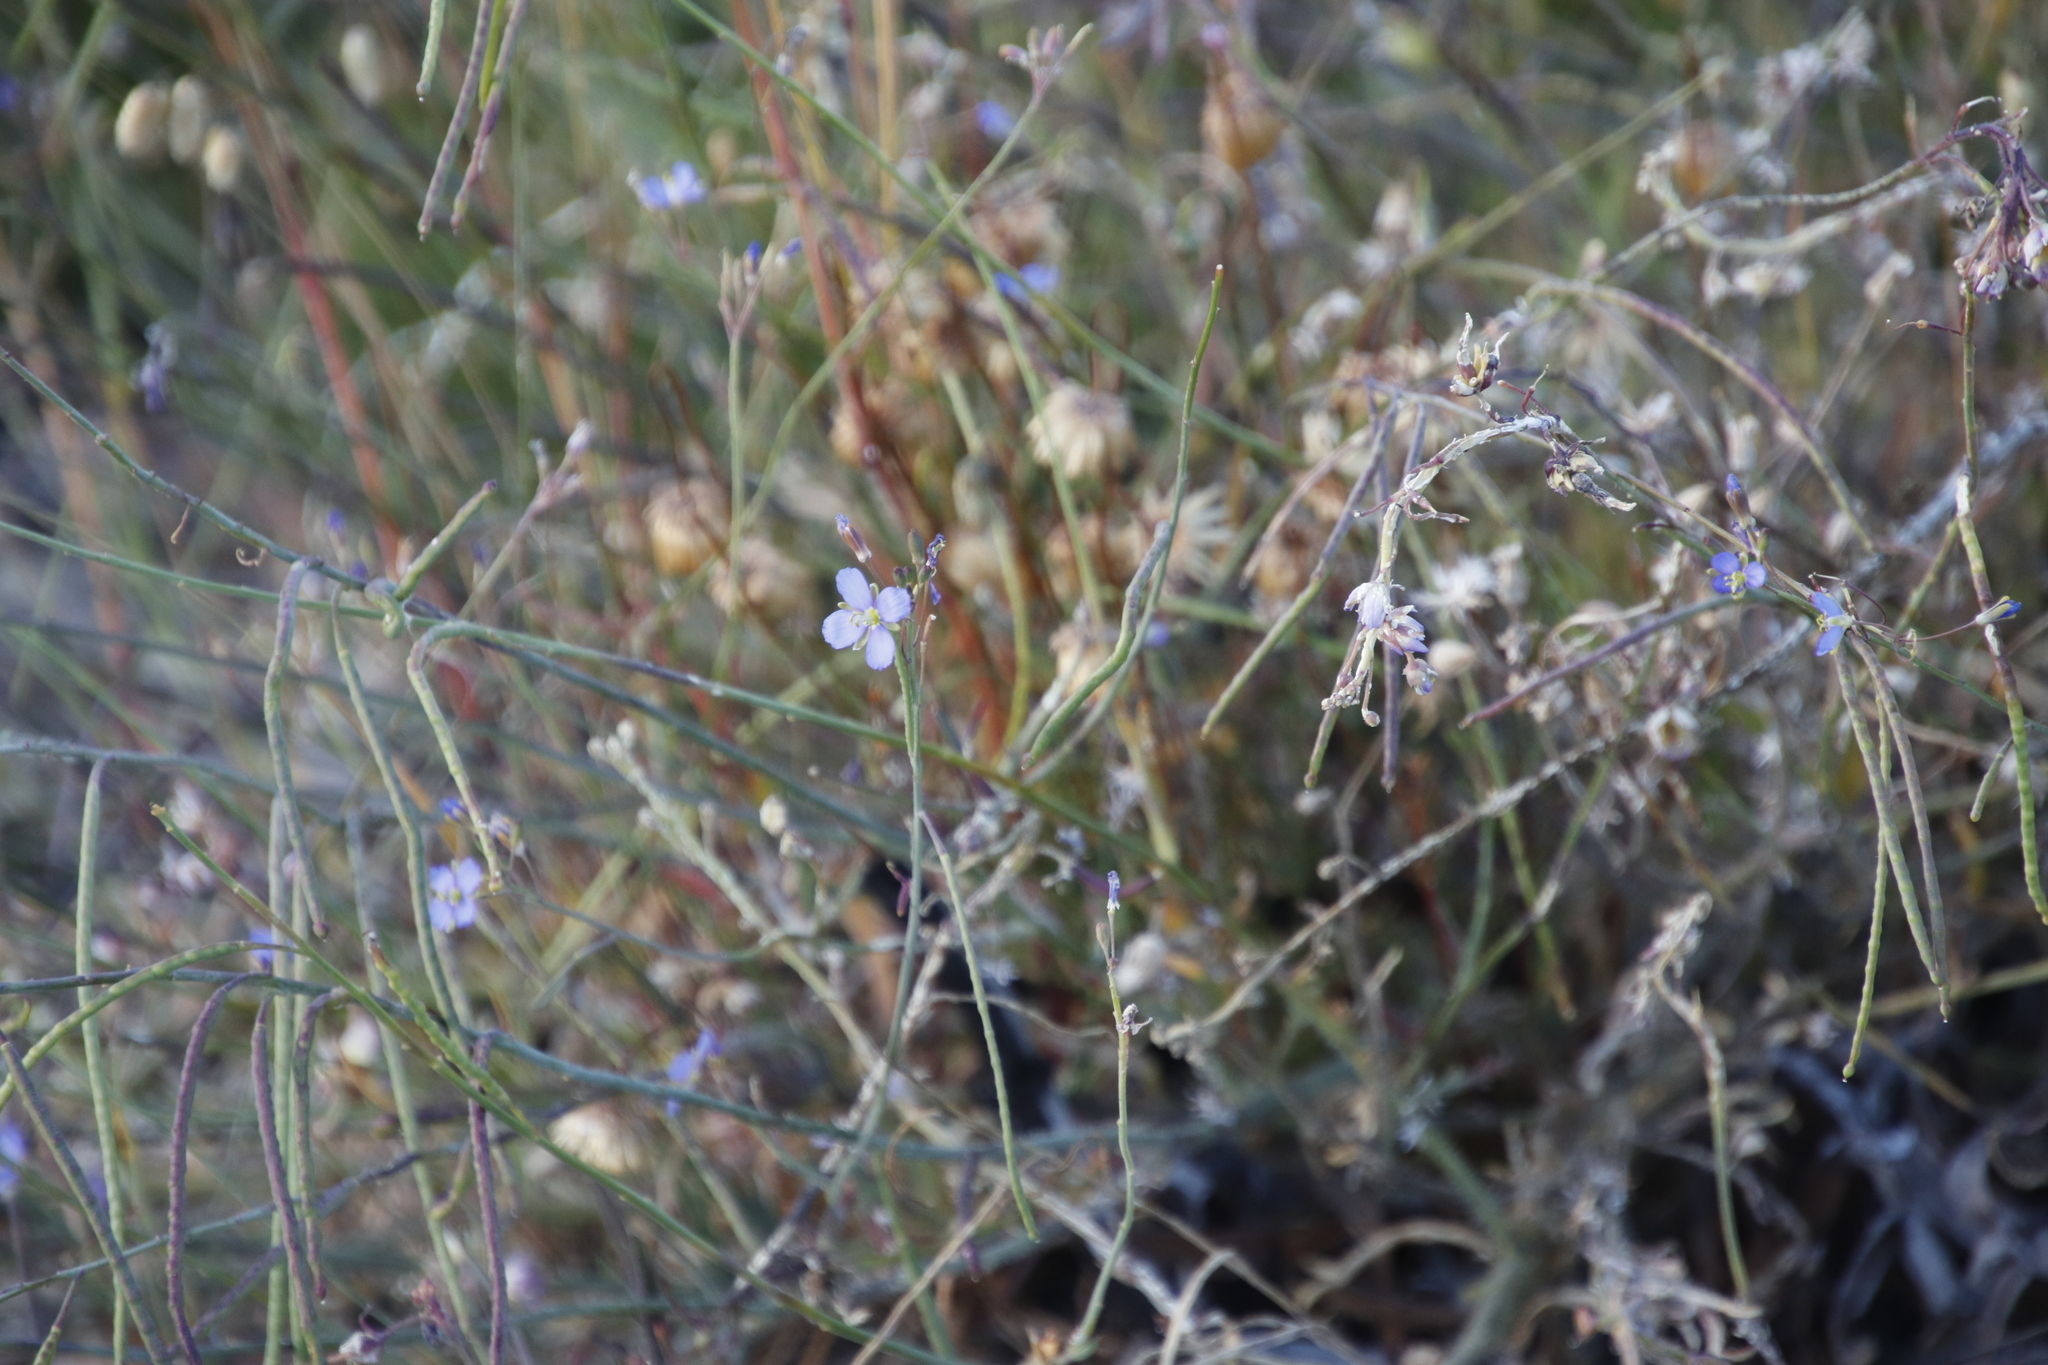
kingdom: Plantae
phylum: Tracheophyta
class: Magnoliopsida
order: Brassicales
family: Brassicaceae
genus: Heliophila
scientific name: Heliophila africana
